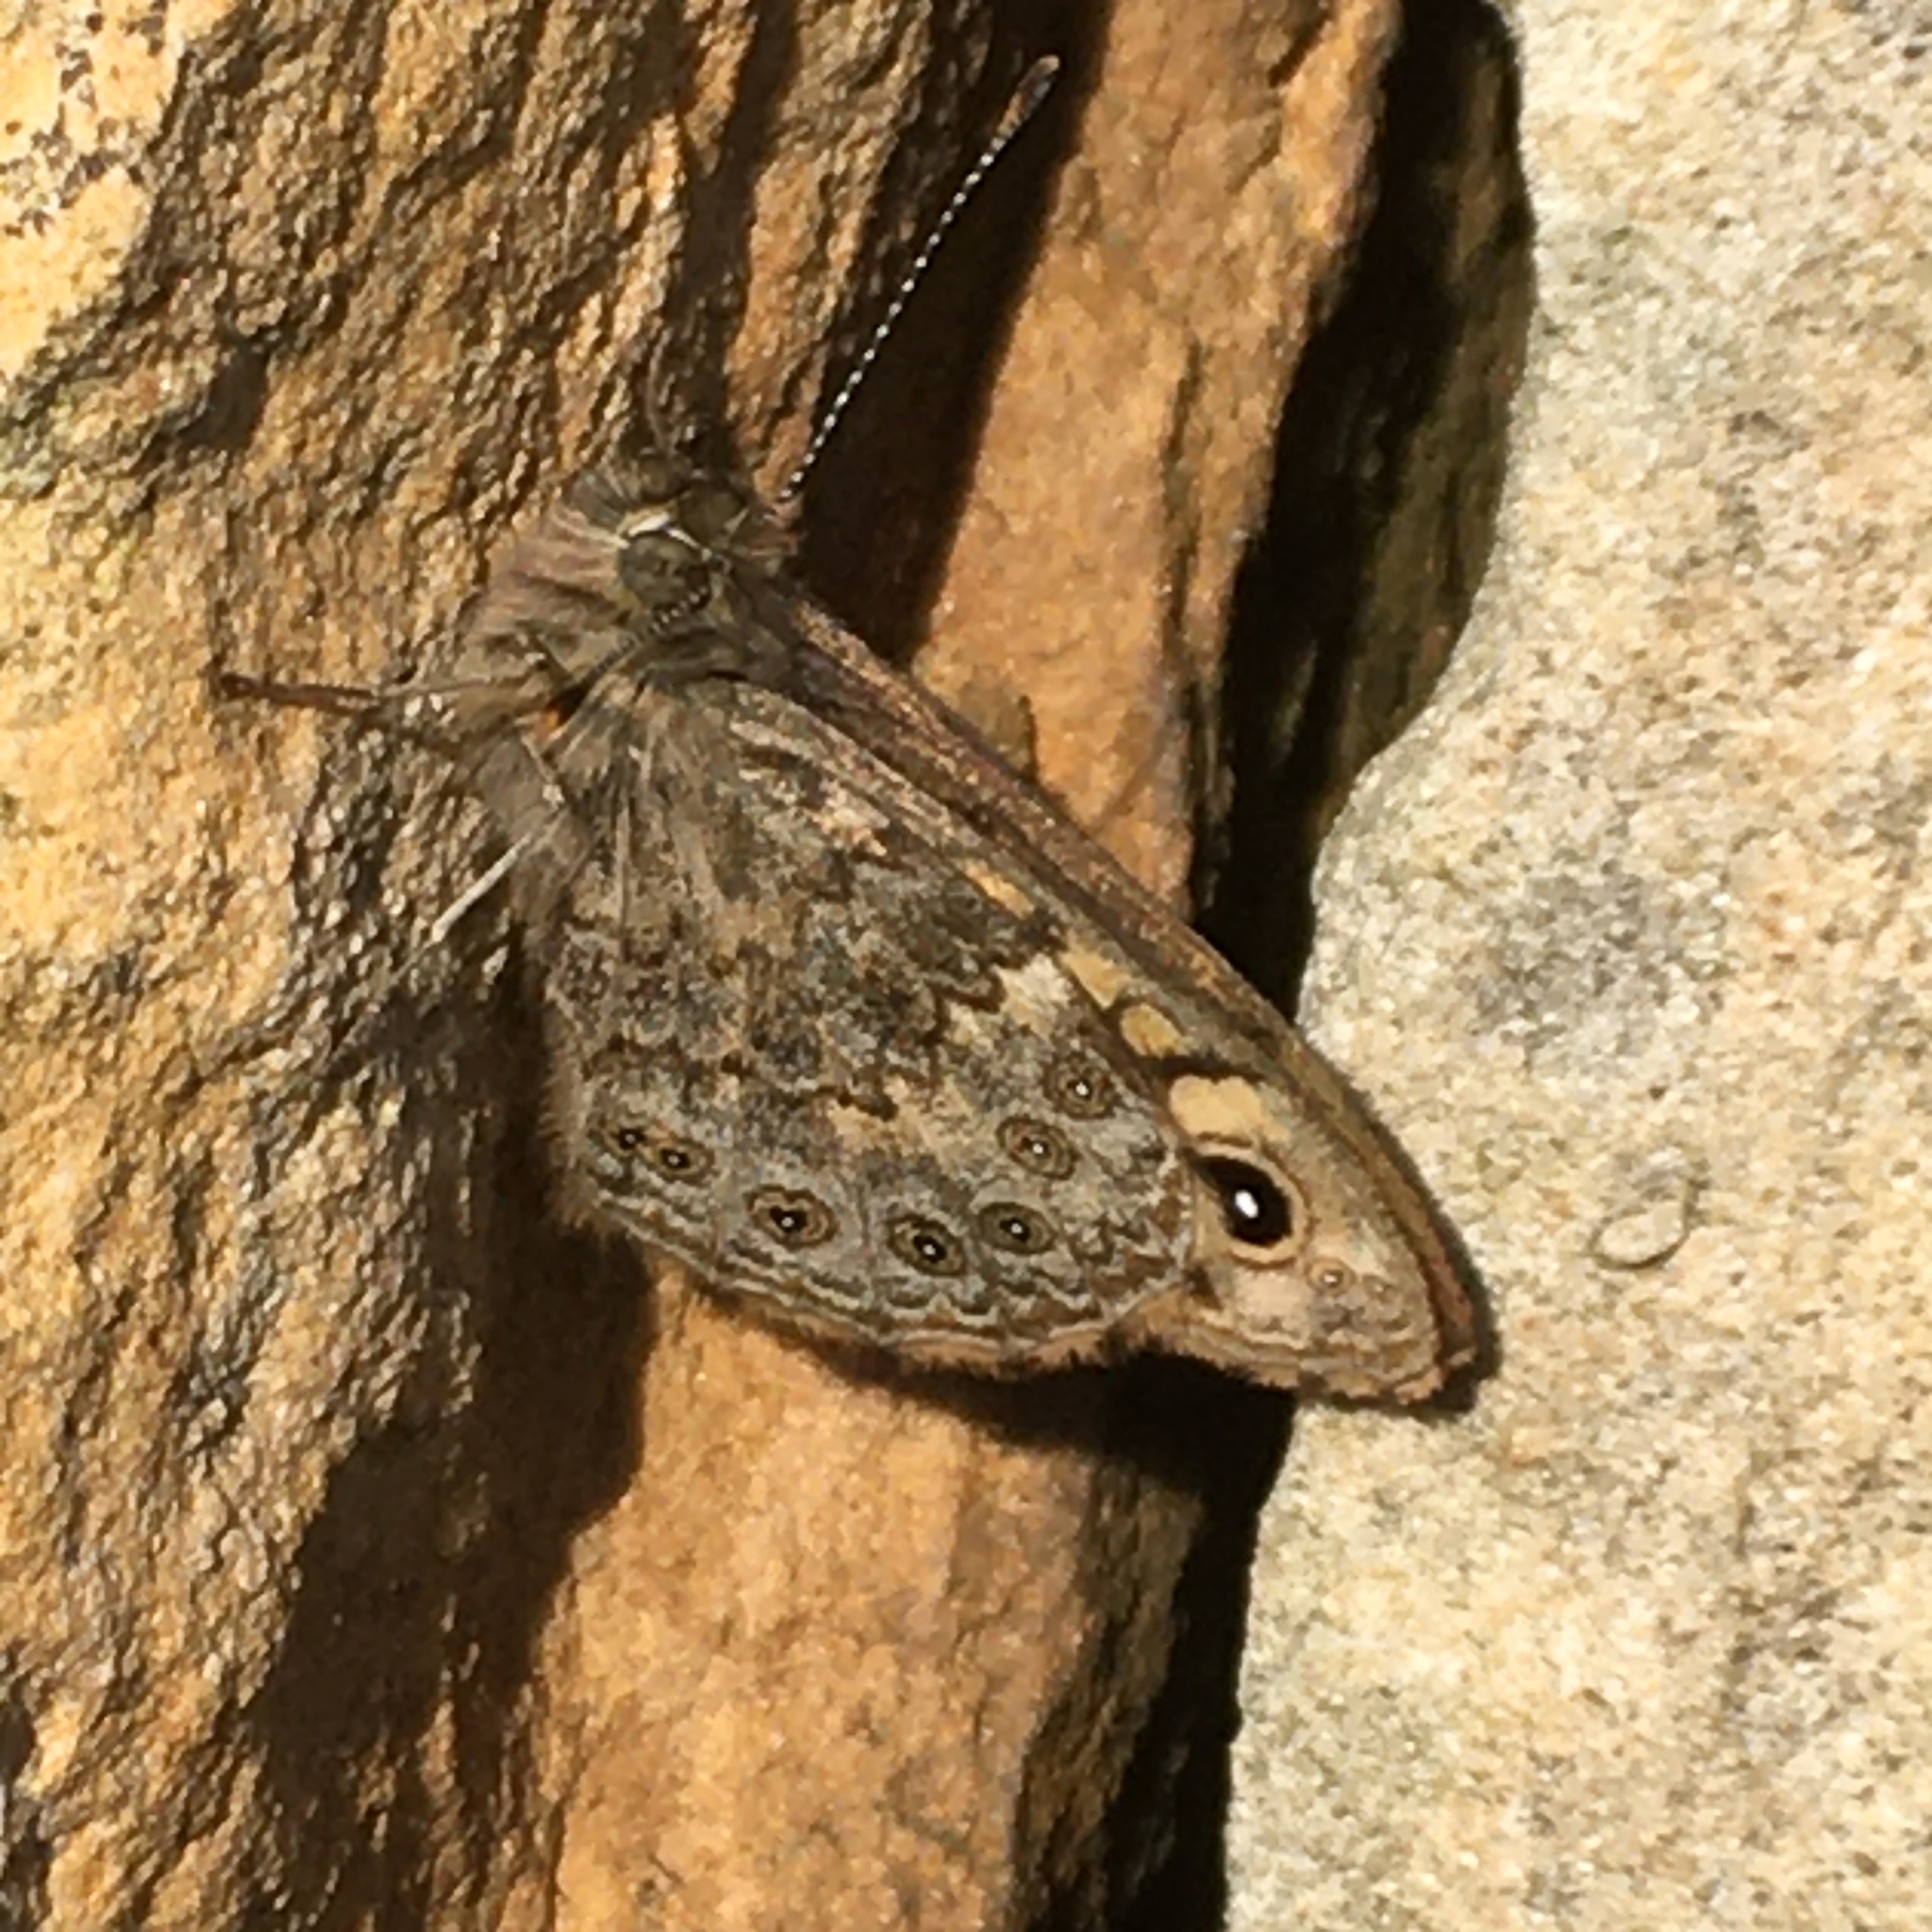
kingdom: Animalia
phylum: Arthropoda
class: Insecta
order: Lepidoptera
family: Nymphalidae
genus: Pararge
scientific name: Pararge Lasiommata megera
